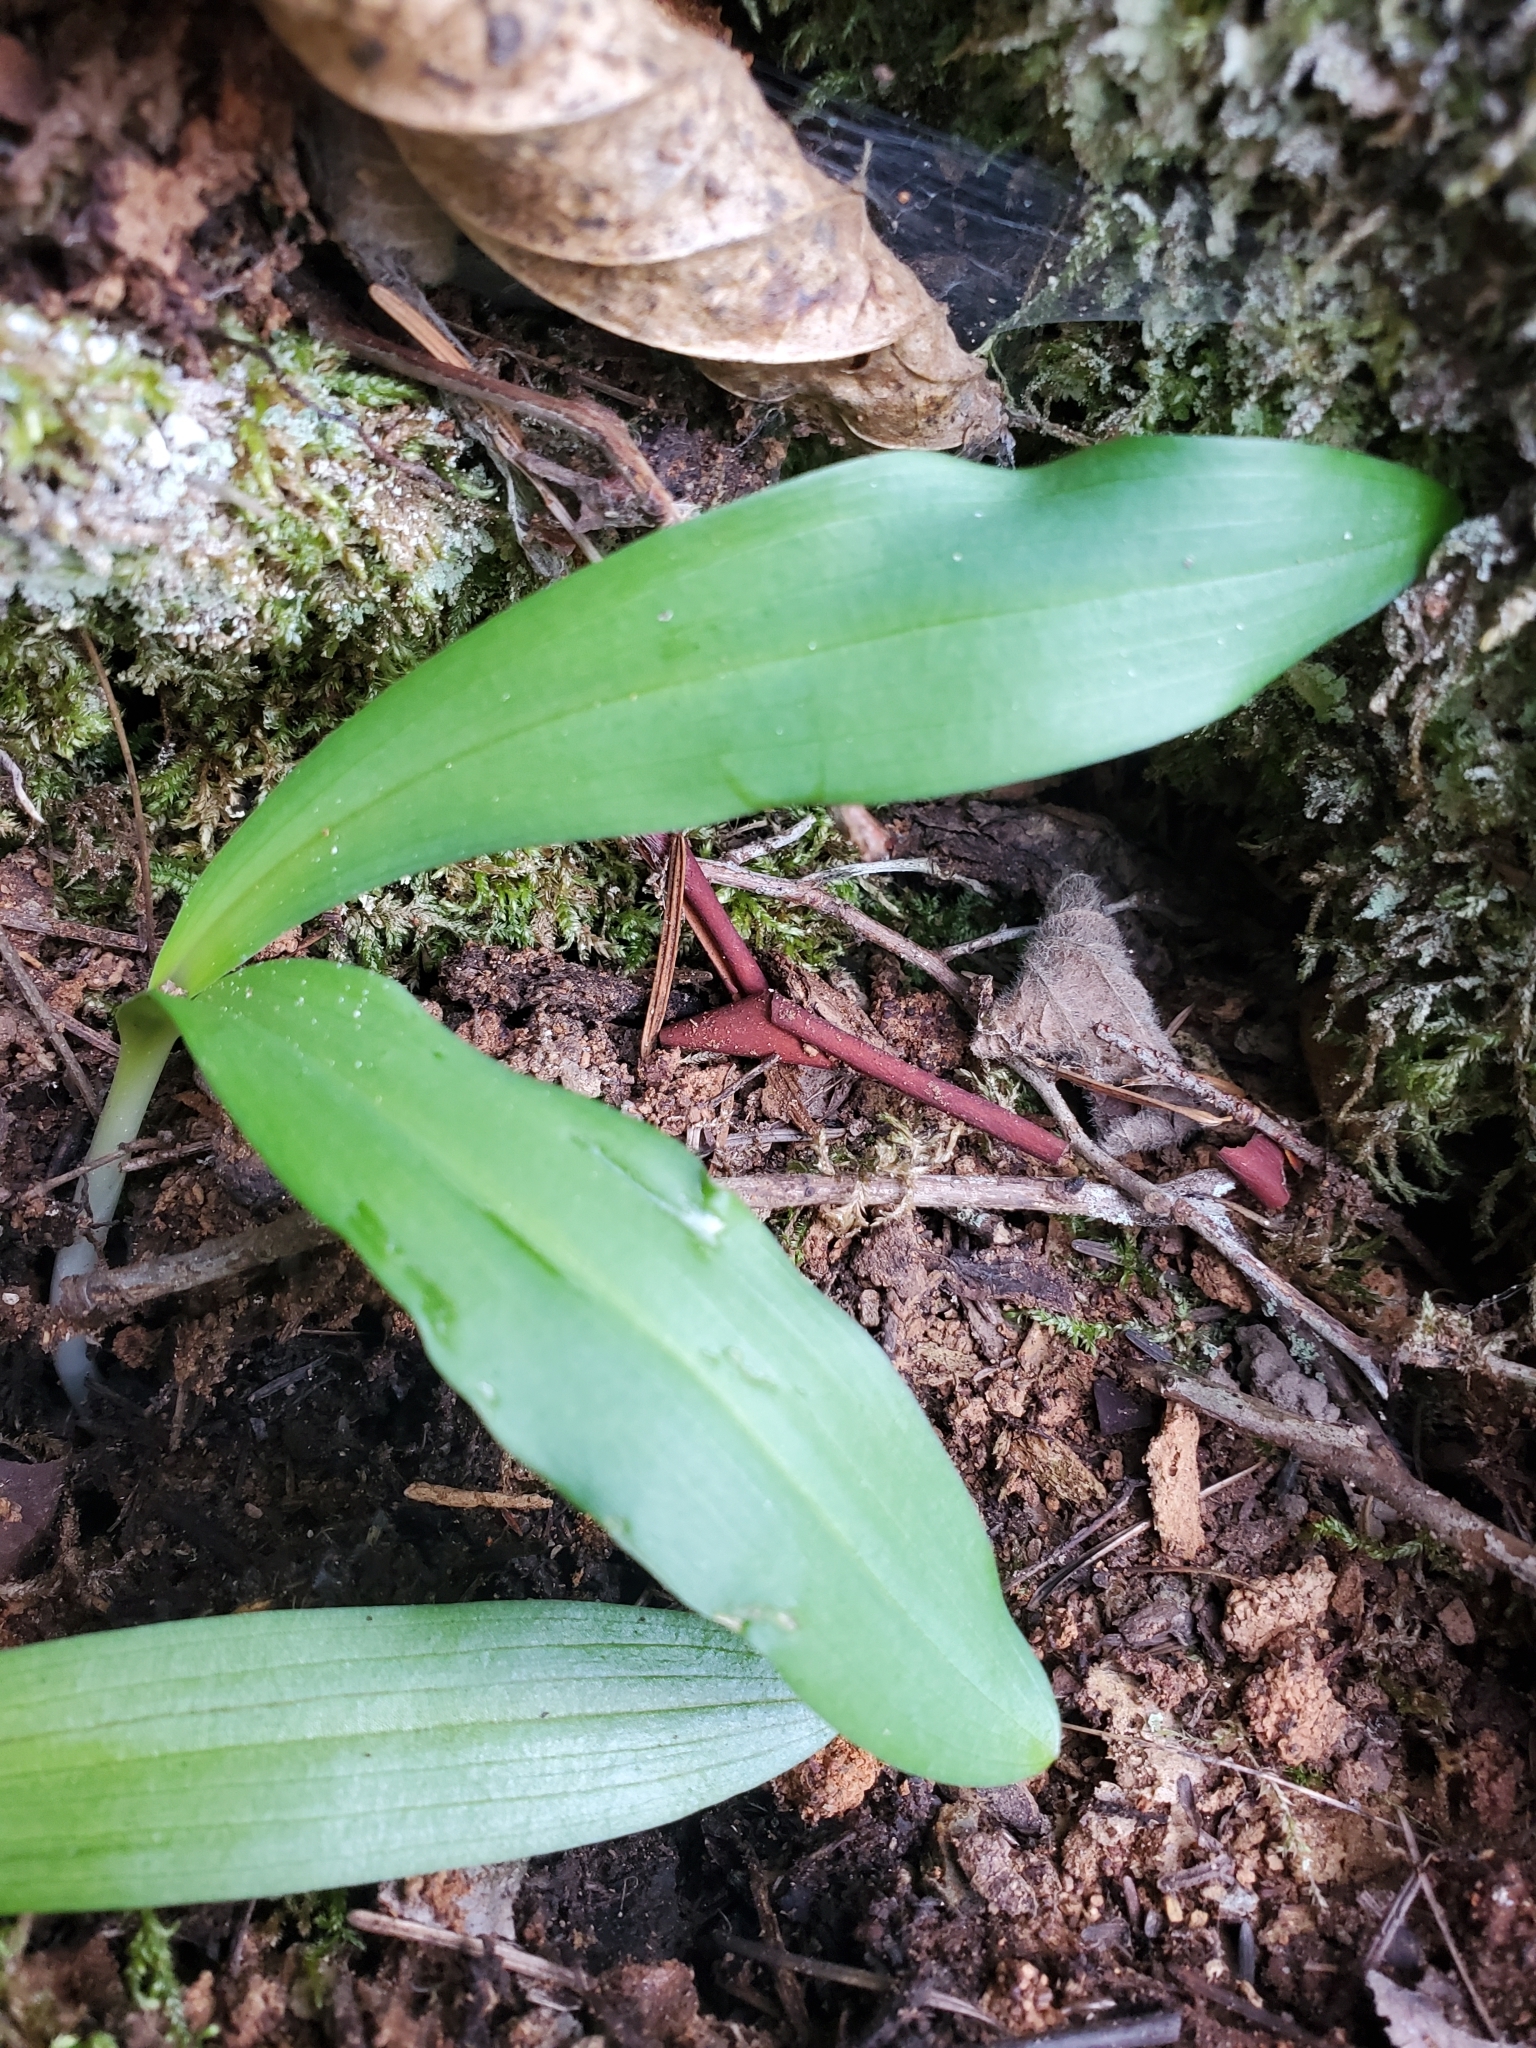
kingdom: Plantae
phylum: Tracheophyta
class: Liliopsida
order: Liliales
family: Liliaceae
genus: Clintonia
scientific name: Clintonia uniflora
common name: Queen's cup
